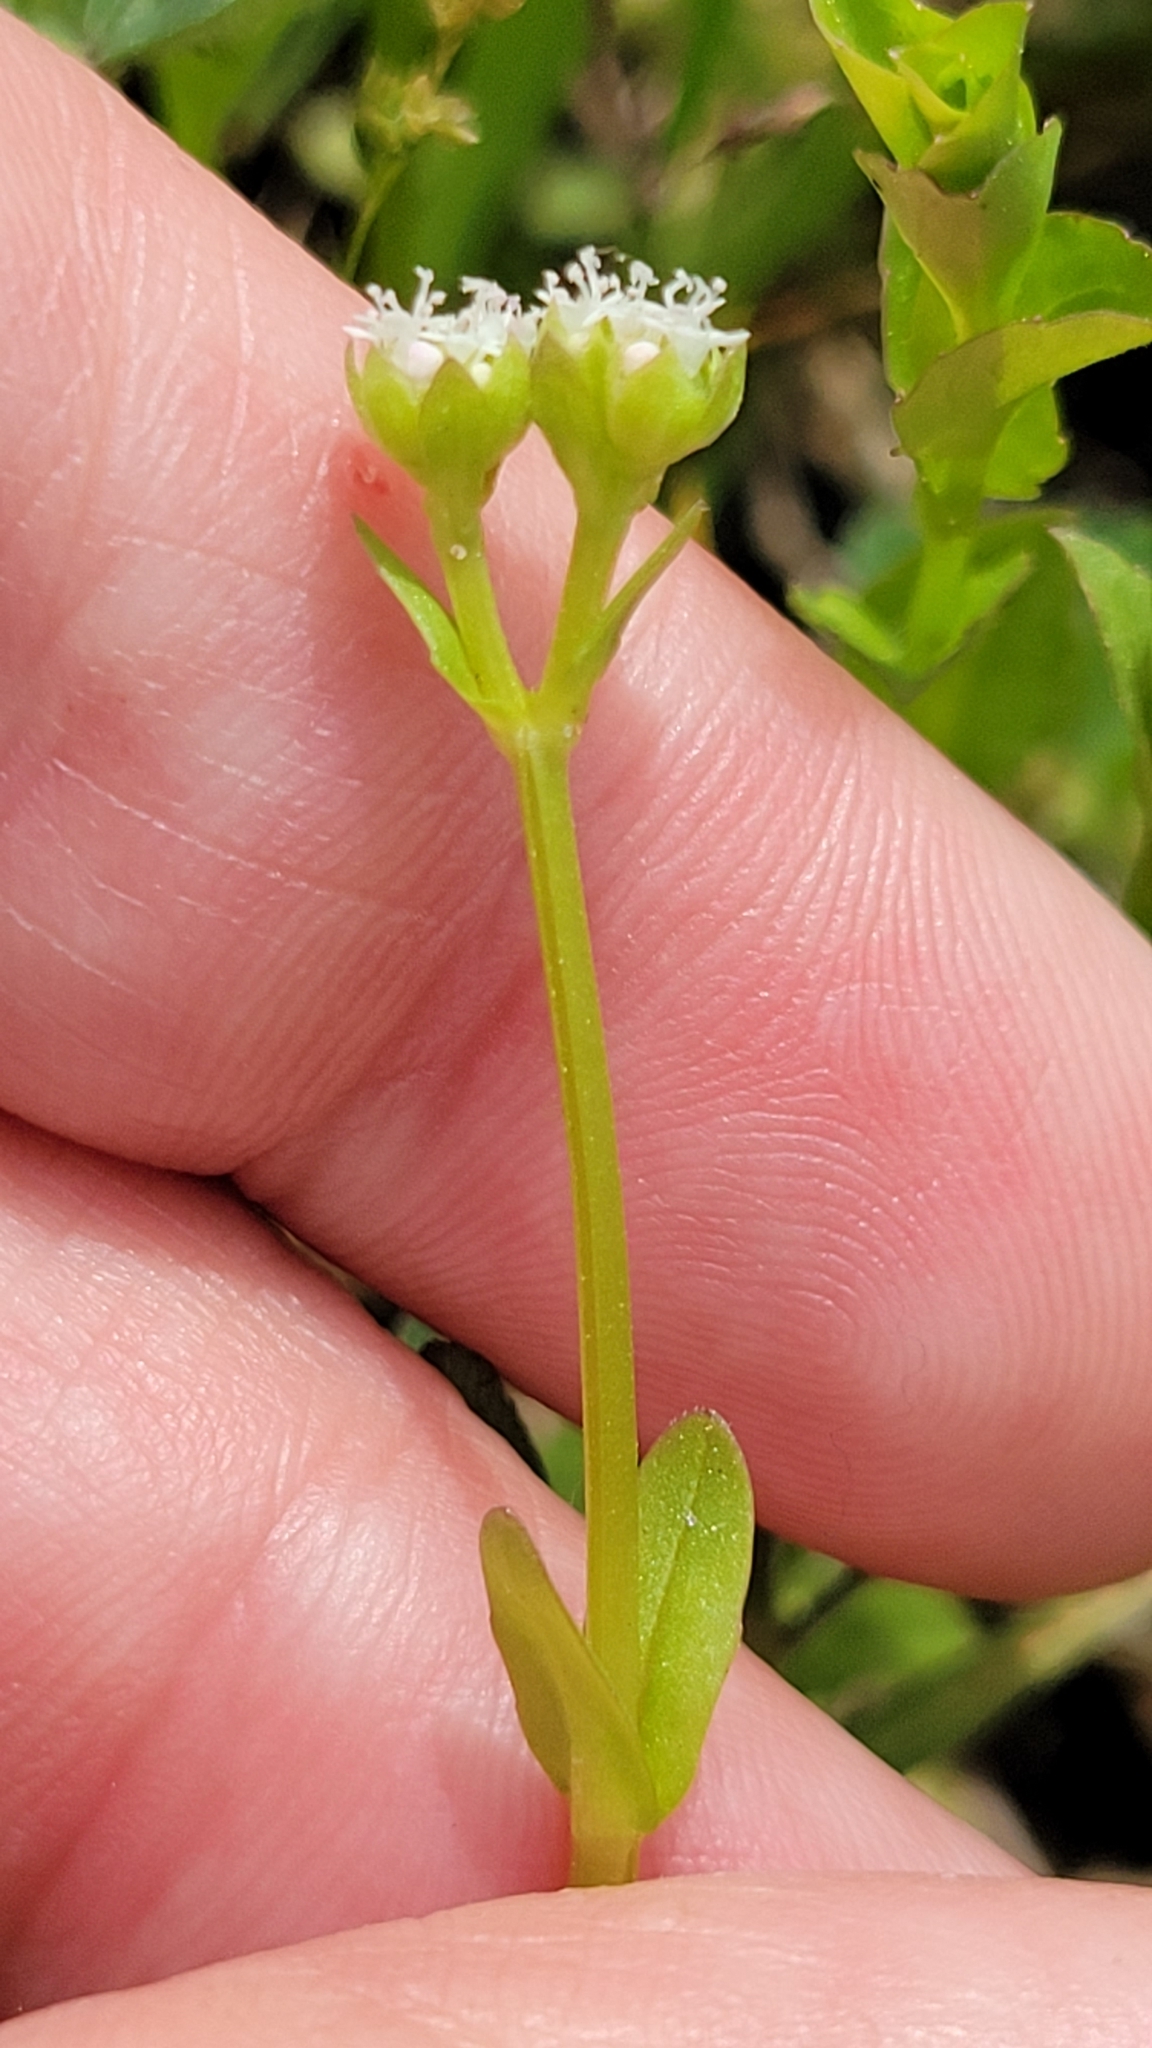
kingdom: Plantae
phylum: Tracheophyta
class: Magnoliopsida
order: Dipsacales
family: Caprifoliaceae
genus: Valerianella
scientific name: Valerianella radiata
